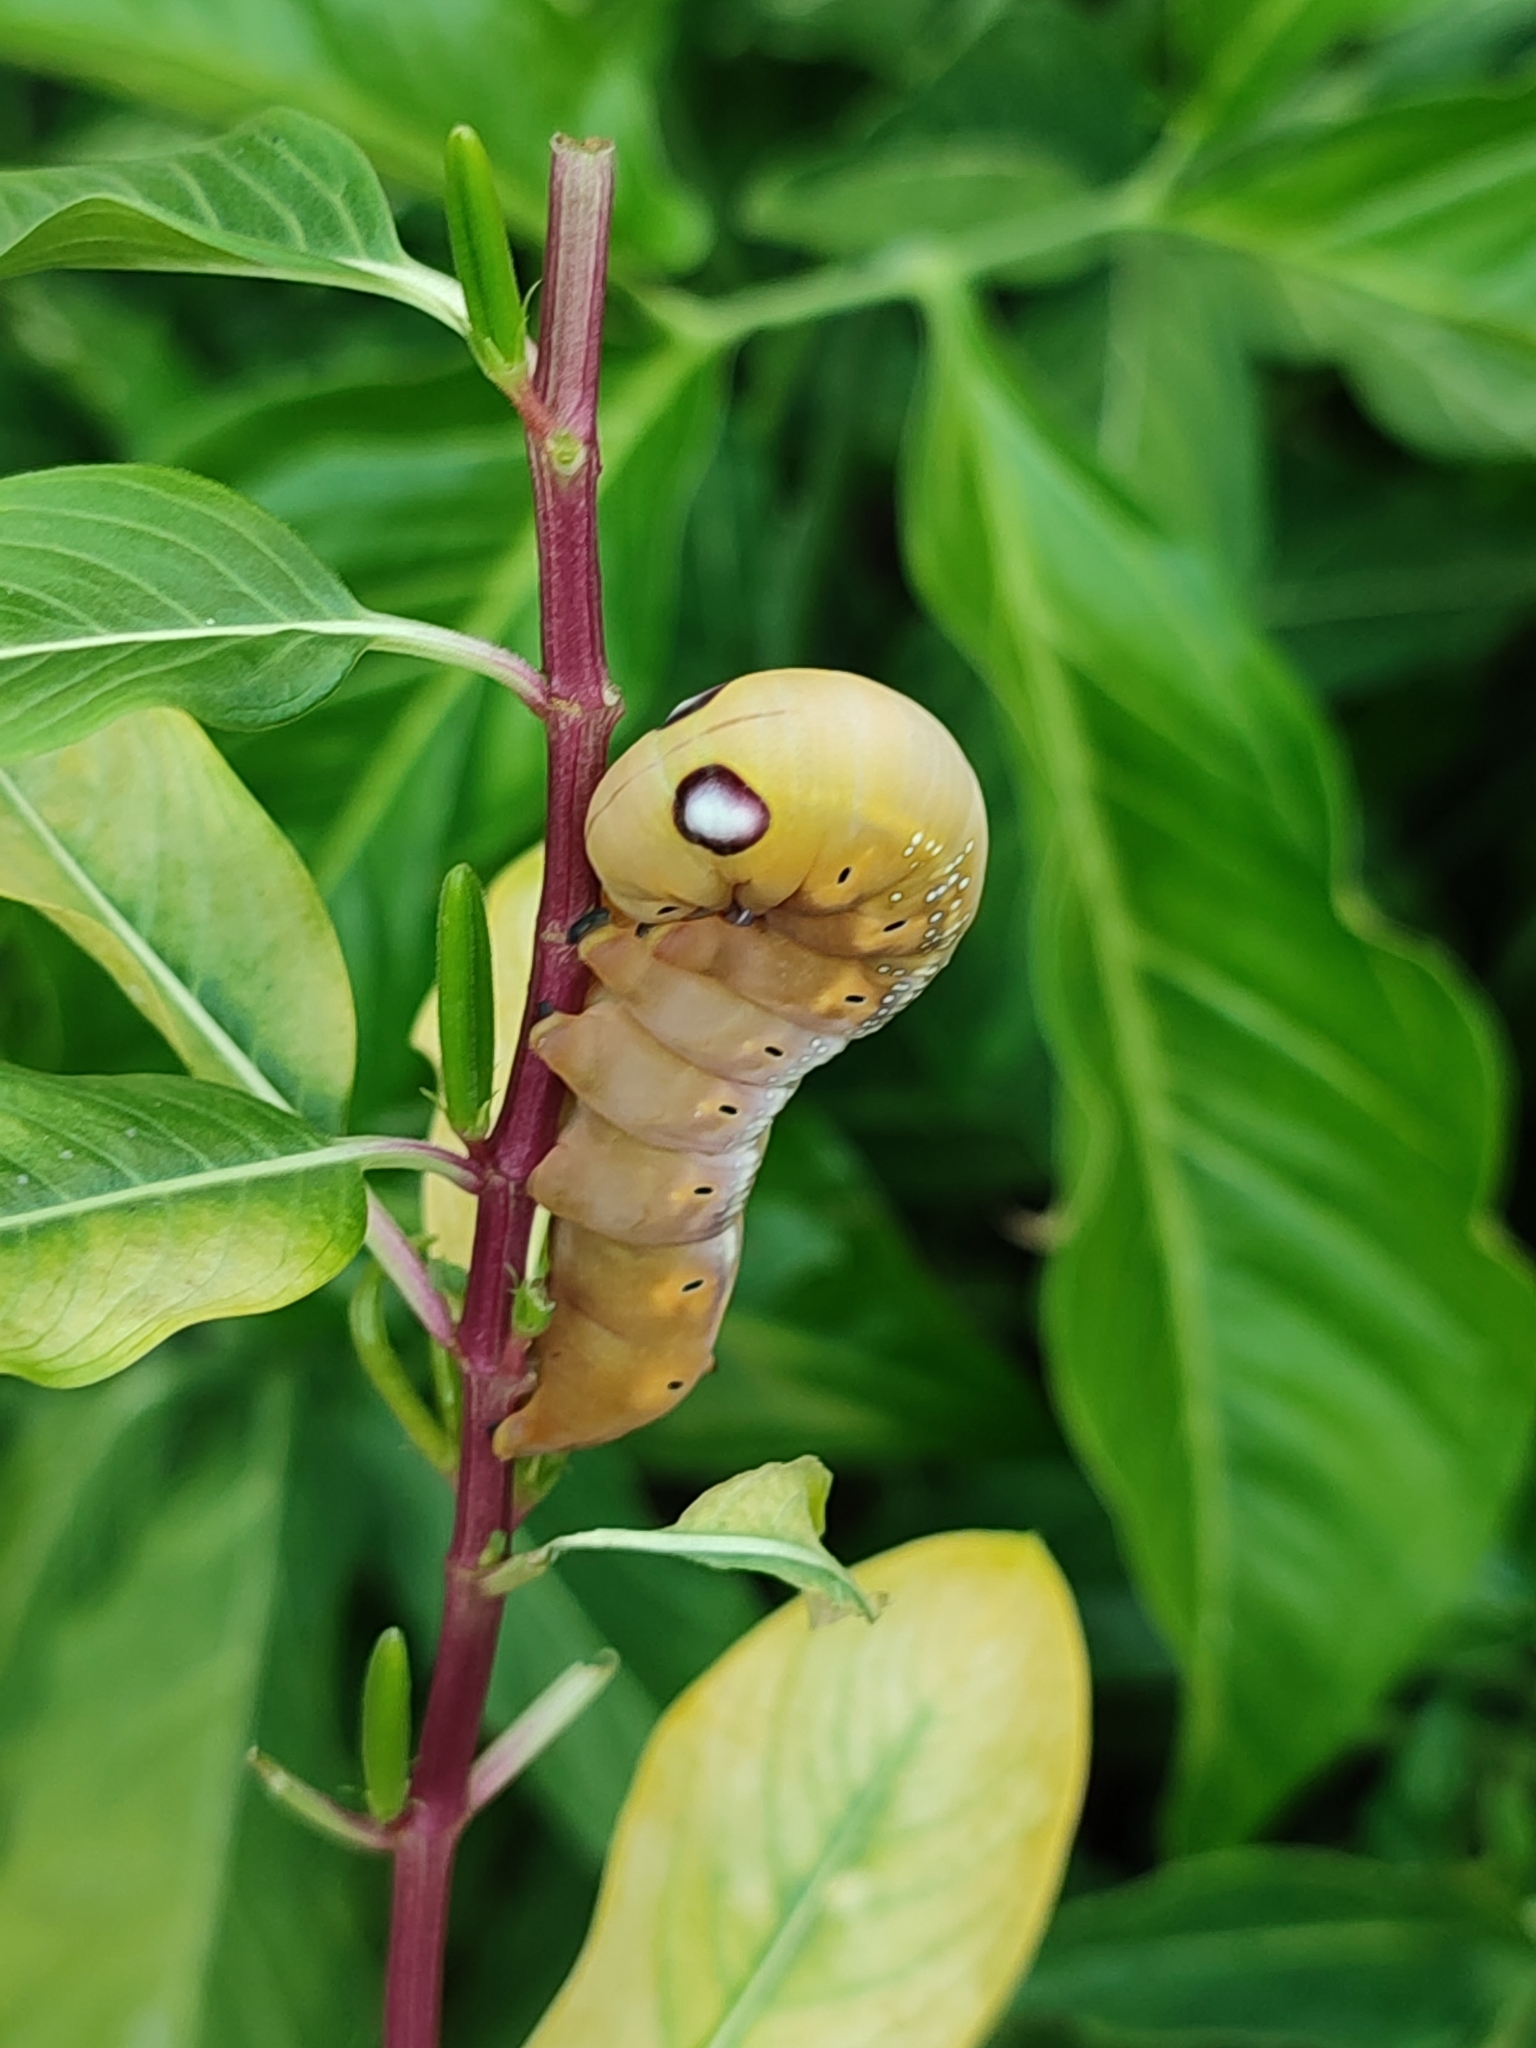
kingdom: Animalia
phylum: Arthropoda
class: Insecta
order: Lepidoptera
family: Sphingidae
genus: Daphnis
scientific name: Daphnis nerii
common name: Oleander hawk-moth
